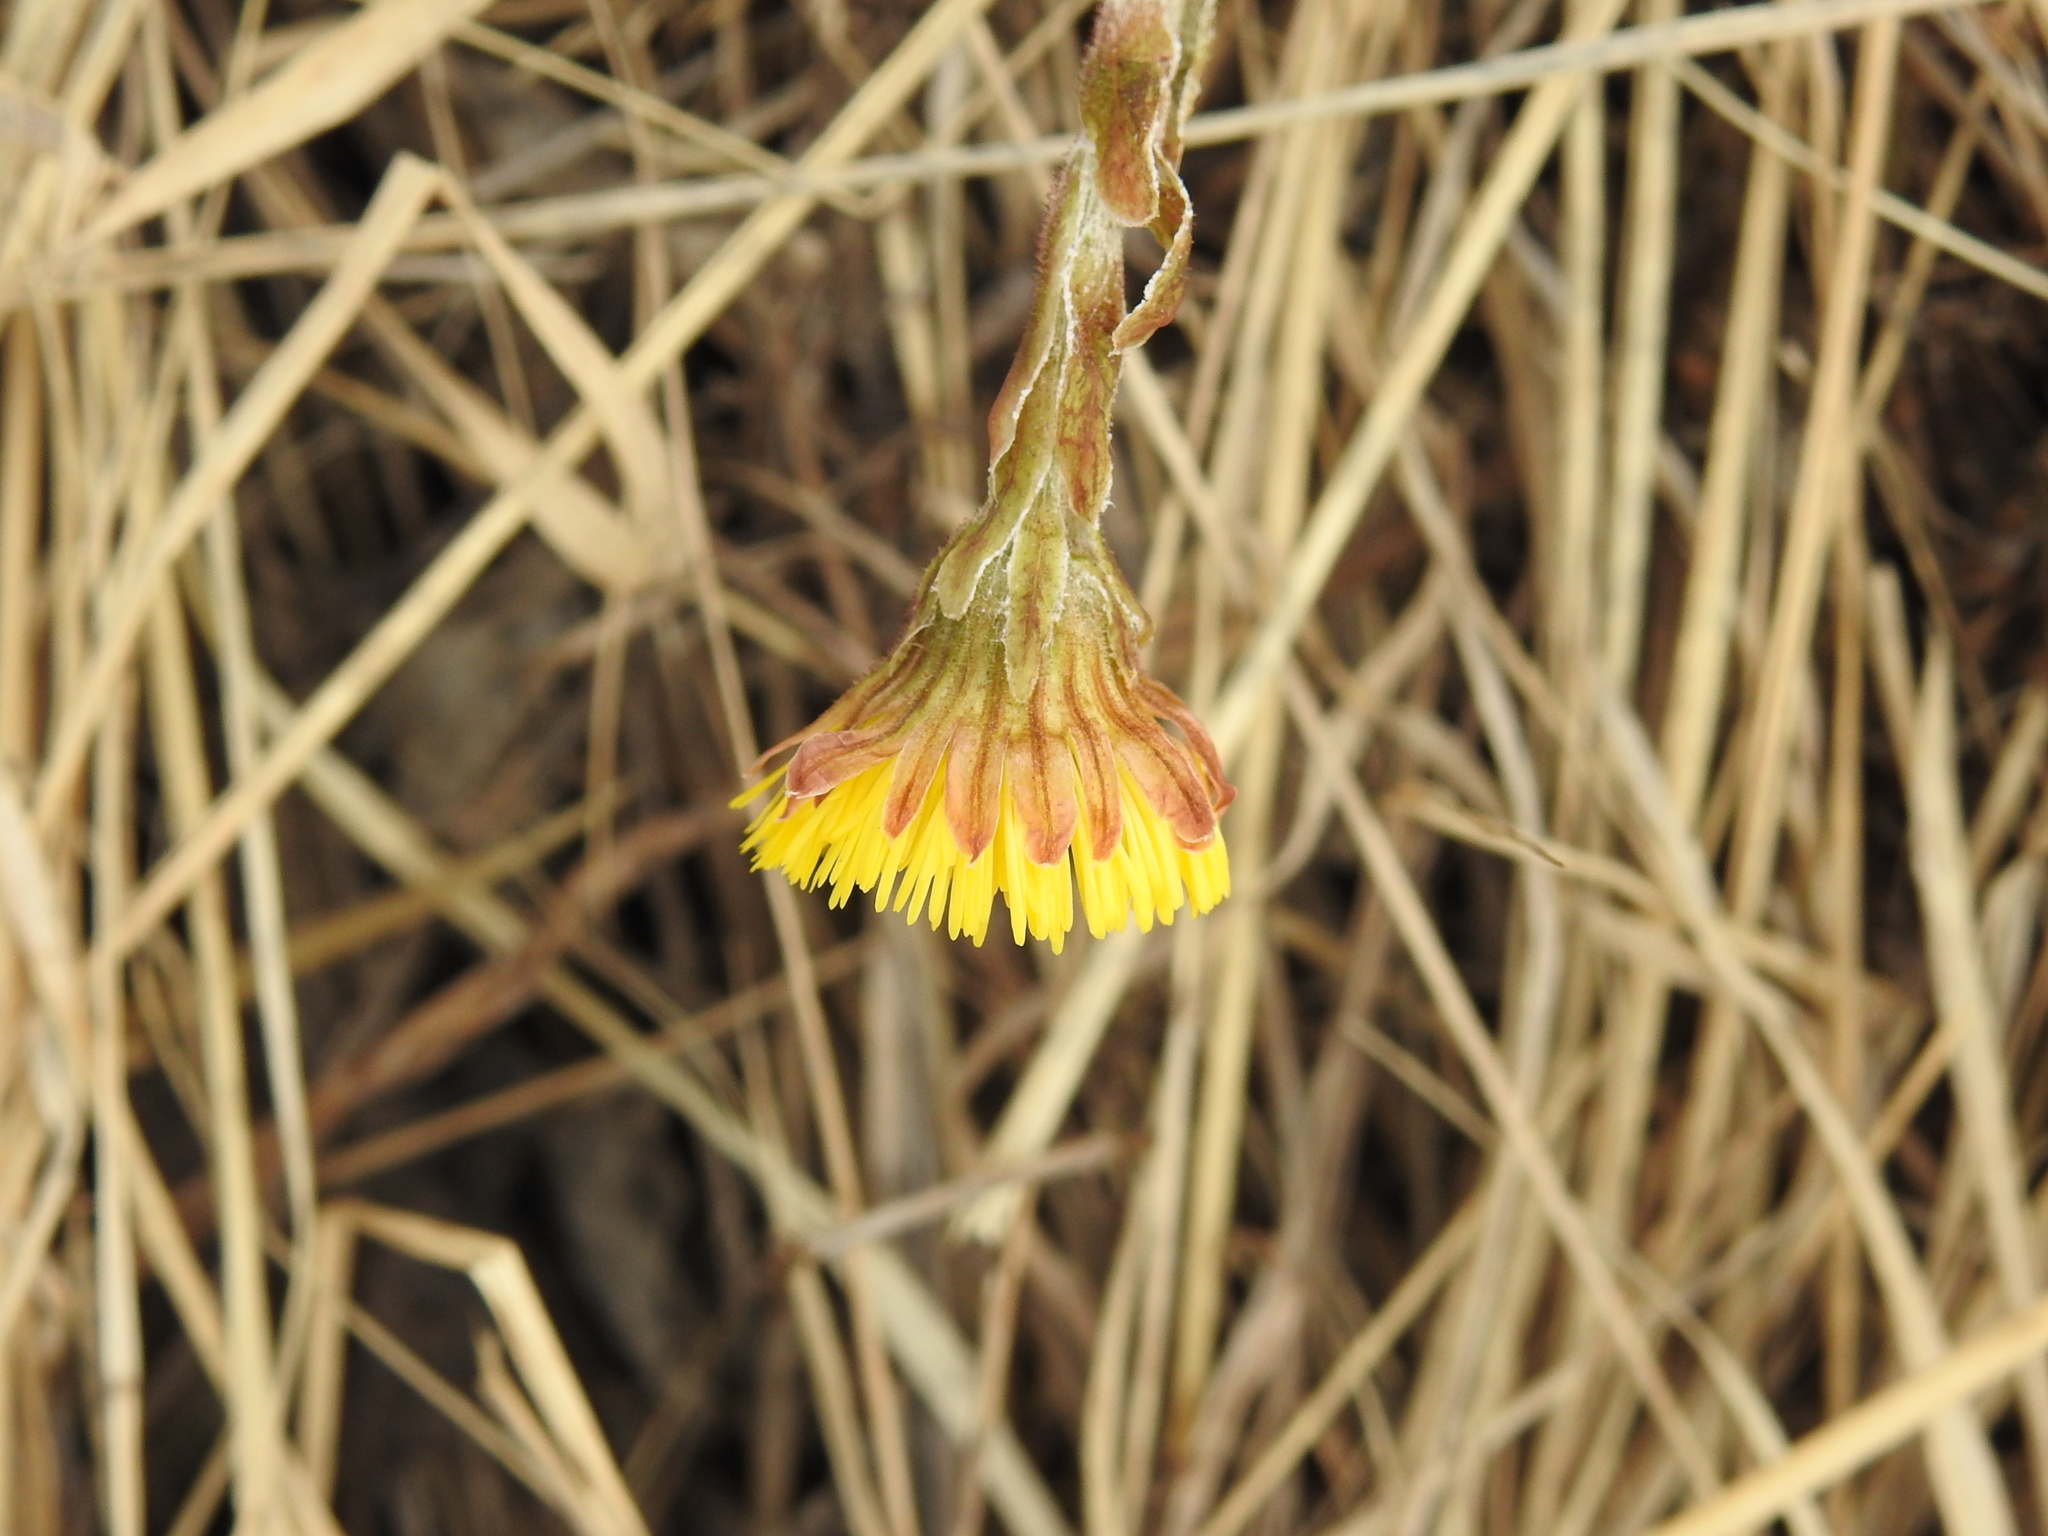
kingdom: Plantae
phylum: Tracheophyta
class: Magnoliopsida
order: Asterales
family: Asteraceae
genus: Tussilago
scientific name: Tussilago farfara
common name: Coltsfoot
